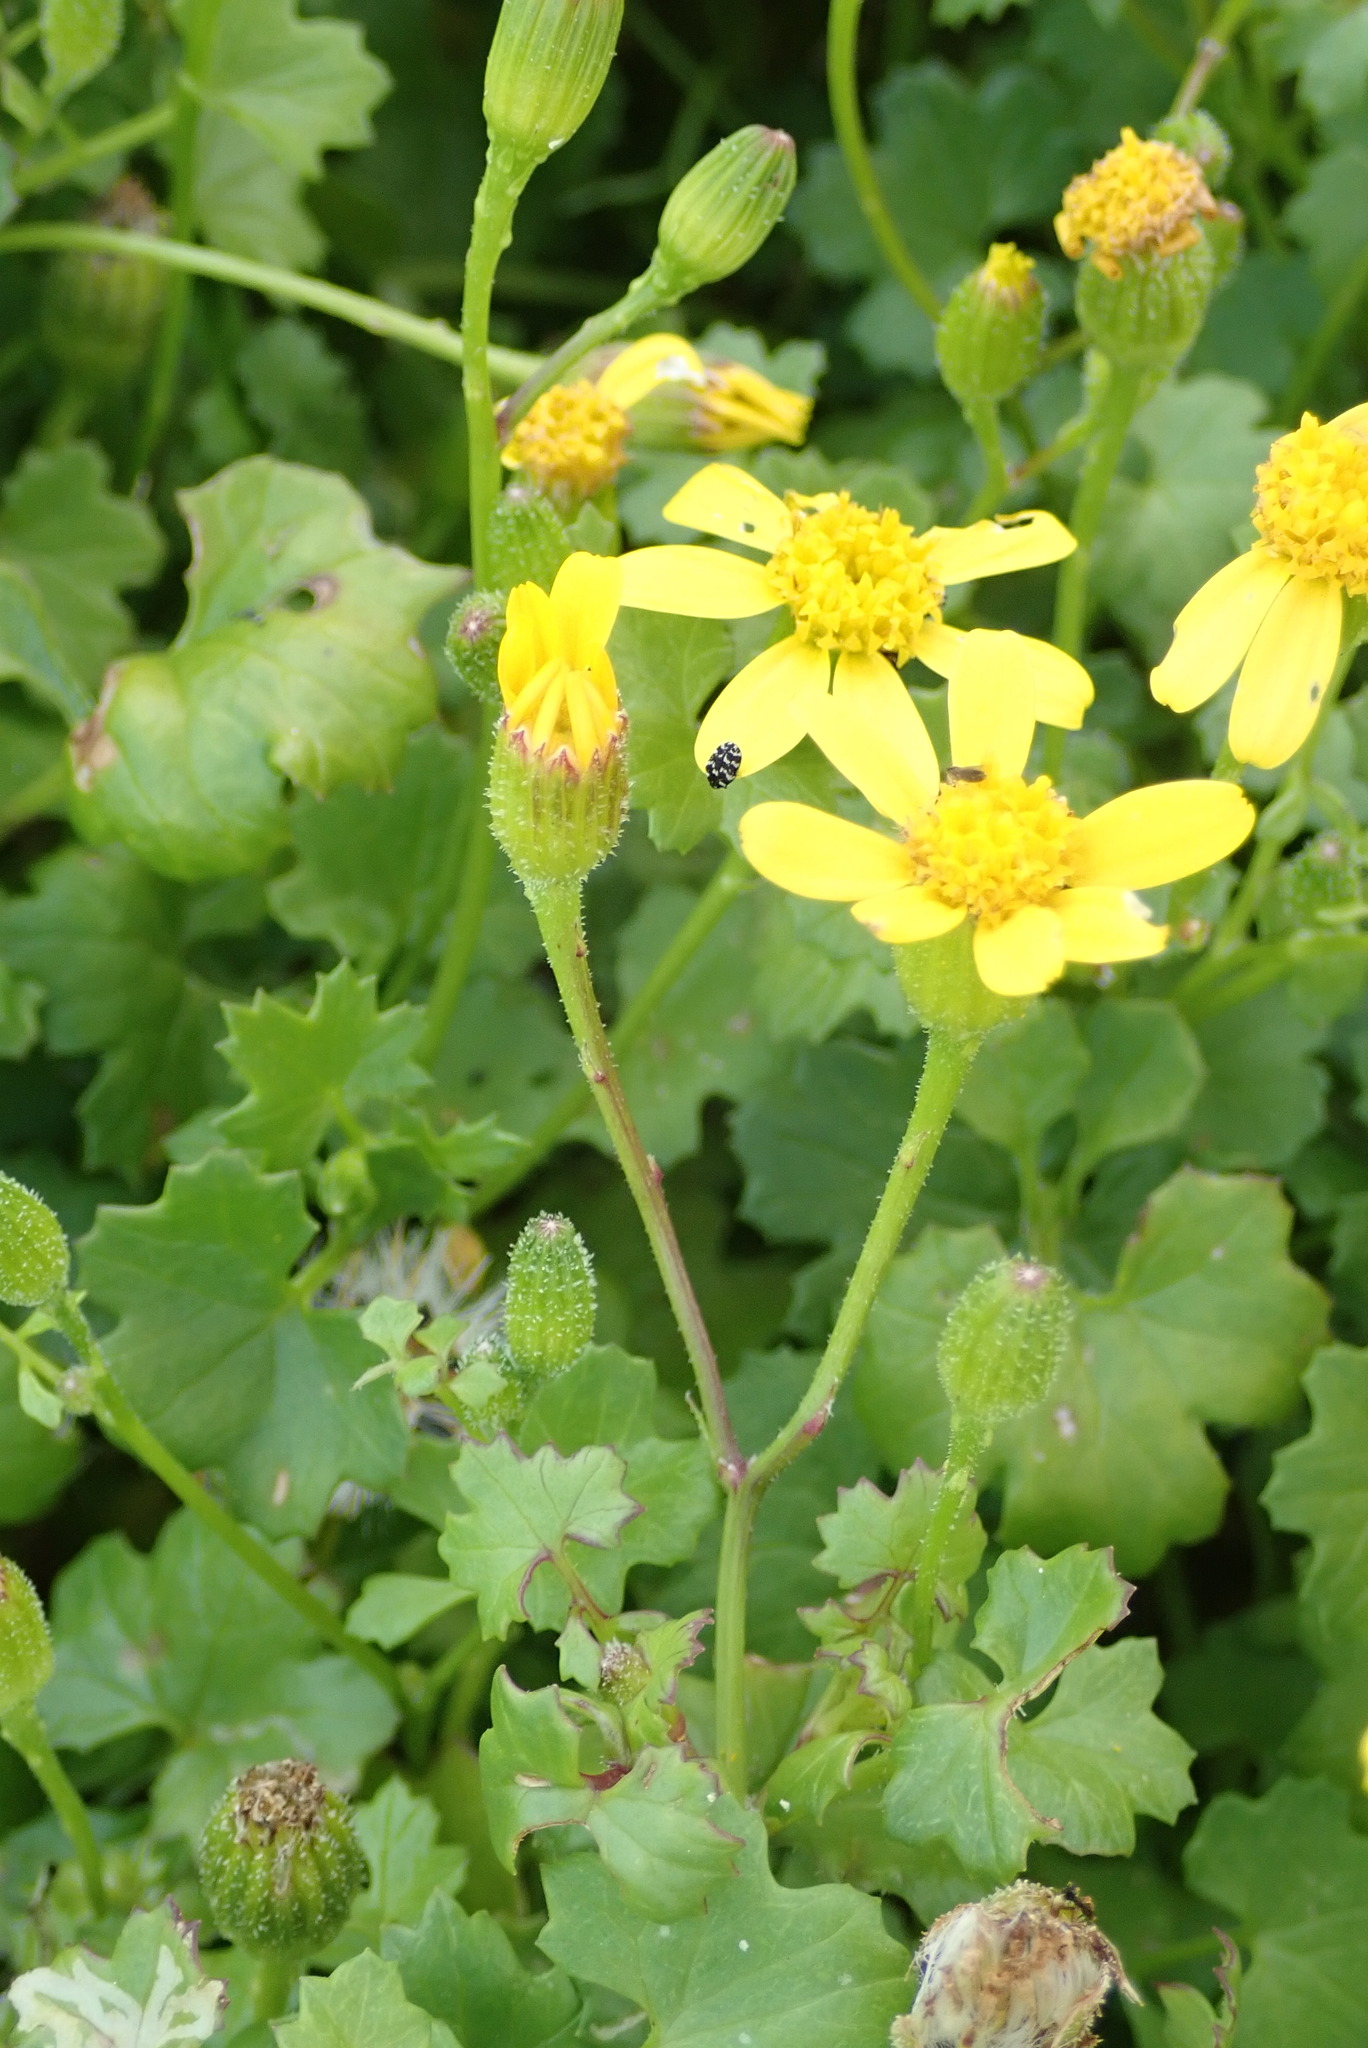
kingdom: Plantae
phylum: Tracheophyta
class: Magnoliopsida
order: Asterales
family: Asteraceae
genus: Cineraria
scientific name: Cineraria angulosa
